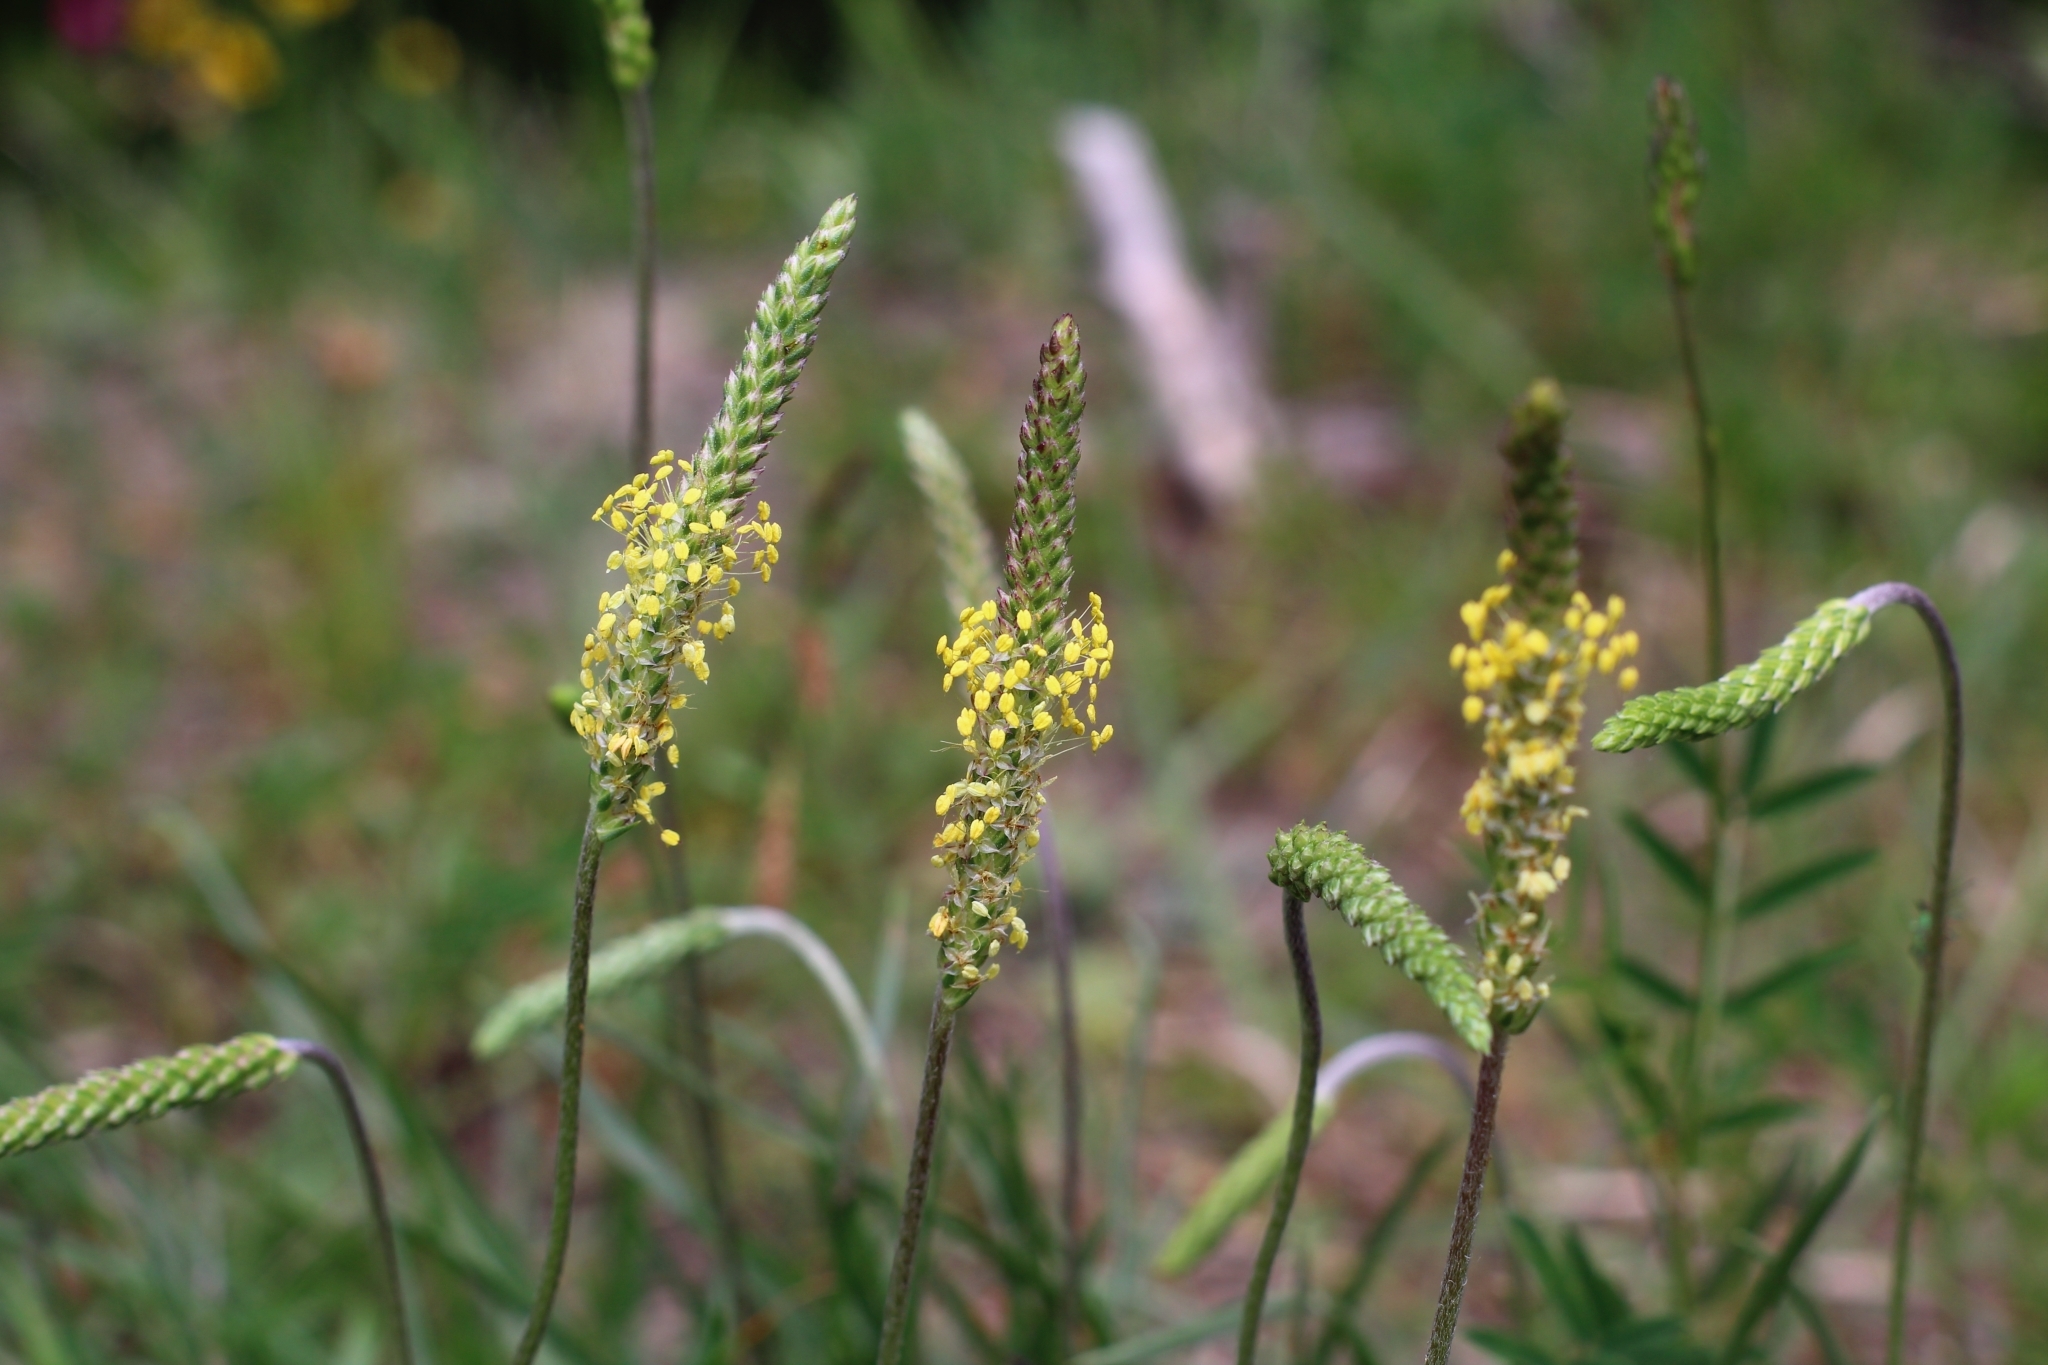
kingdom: Plantae
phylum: Tracheophyta
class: Magnoliopsida
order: Lamiales
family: Plantaginaceae
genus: Plantago
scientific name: Plantago
